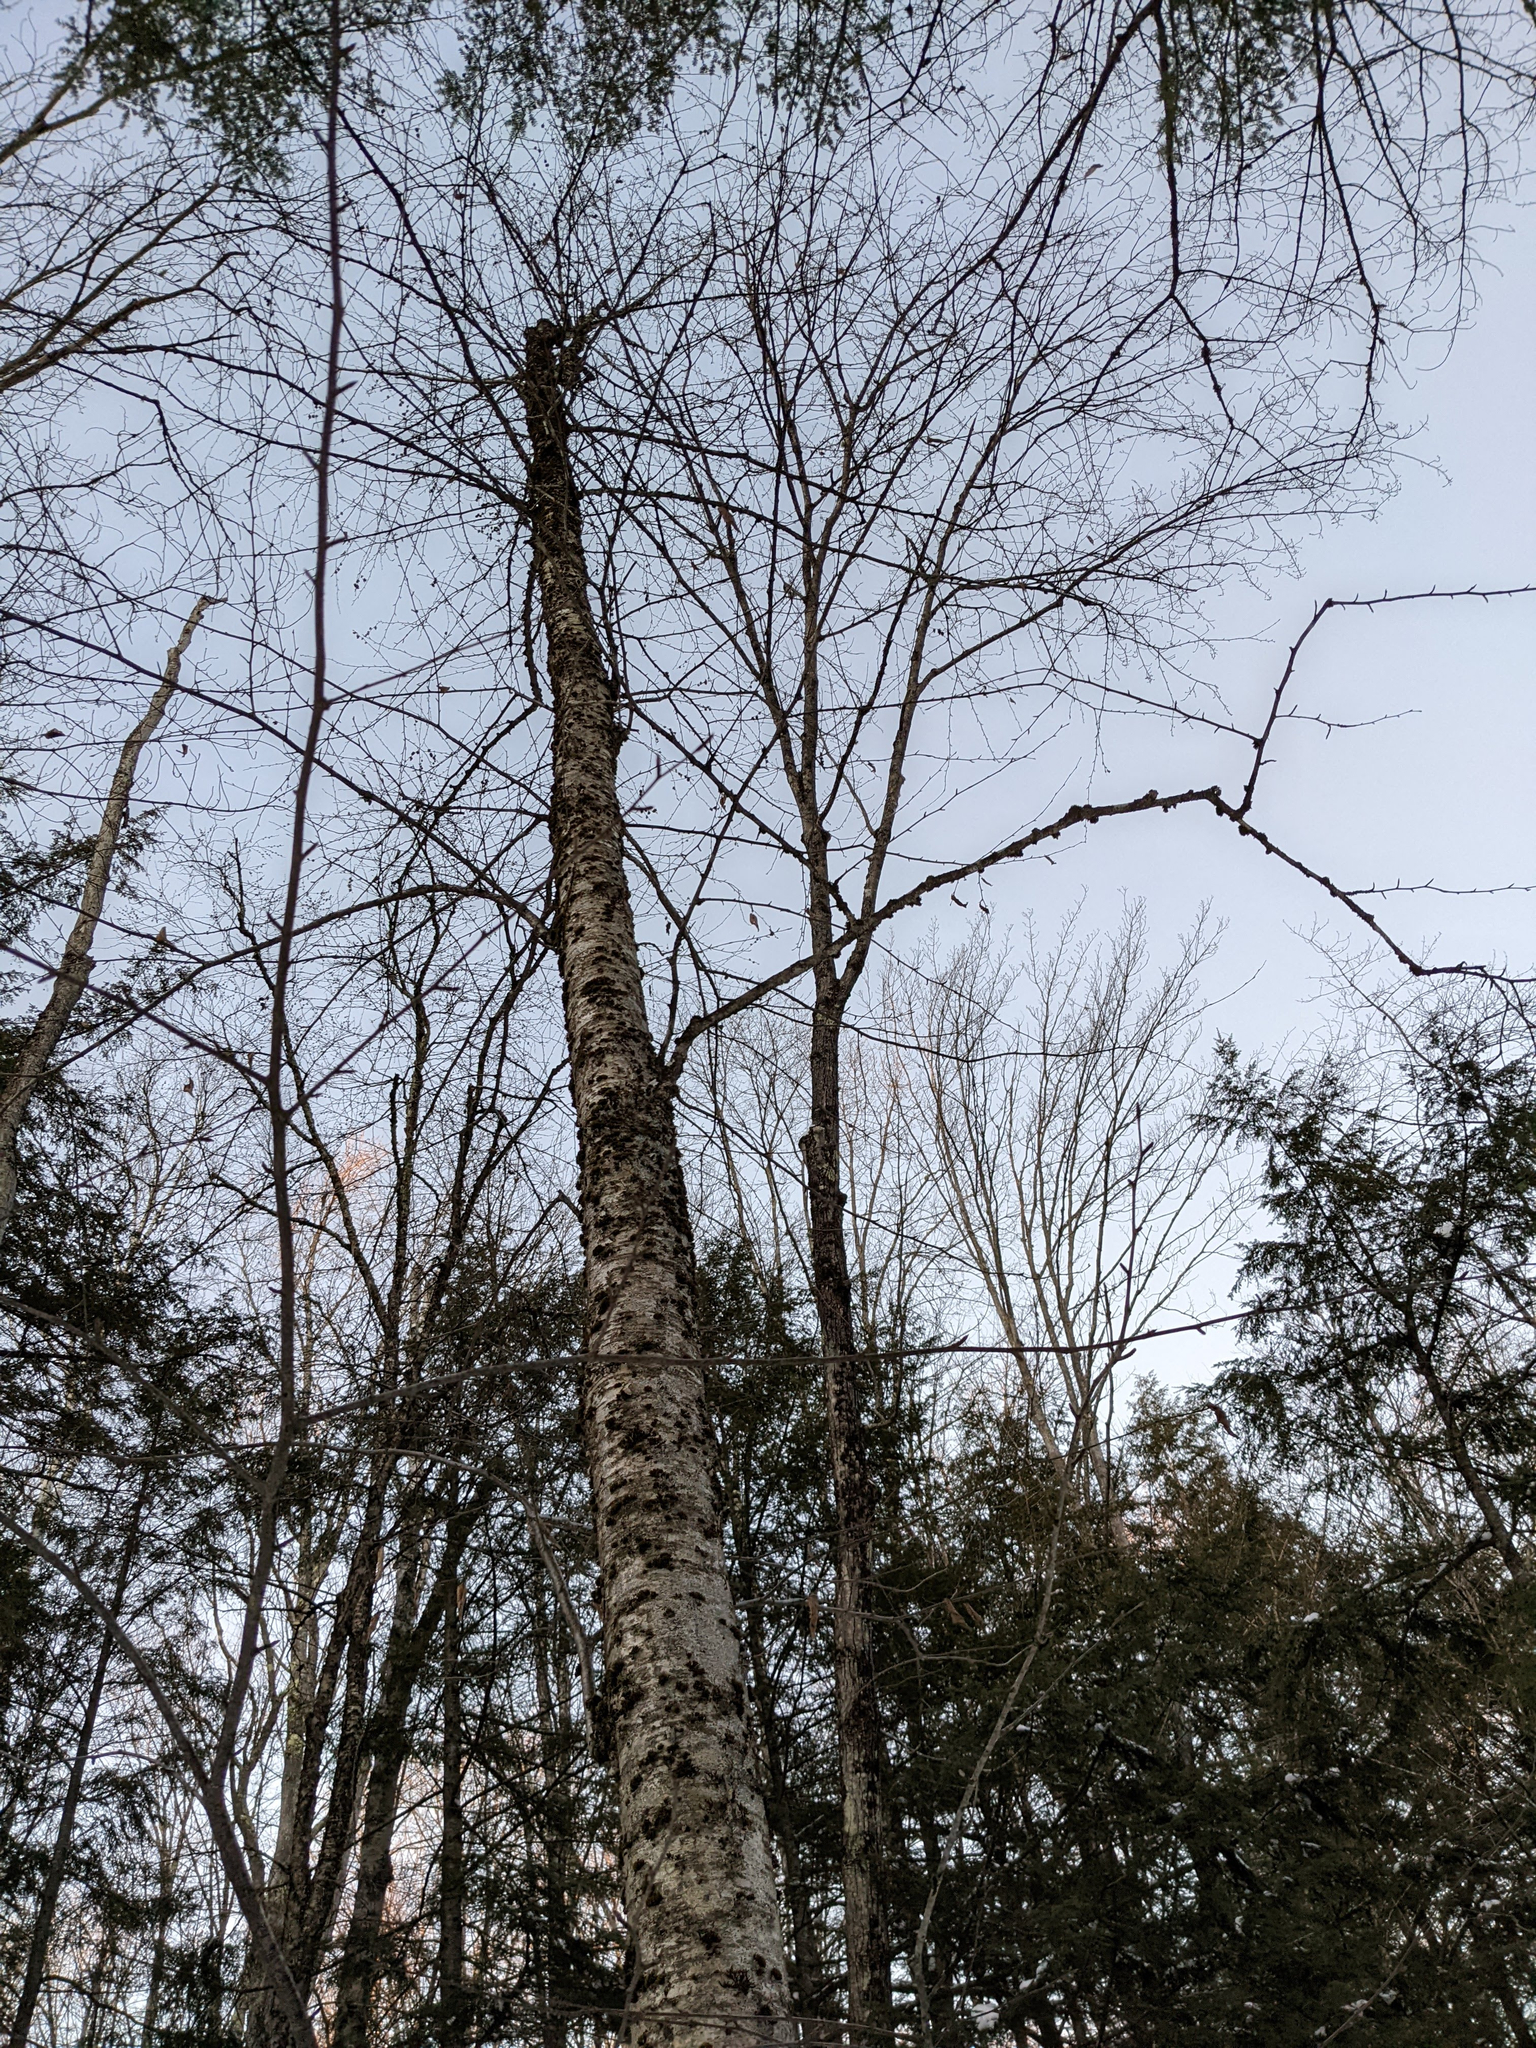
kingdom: Plantae
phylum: Tracheophyta
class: Magnoliopsida
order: Fagales
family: Betulaceae
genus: Betula
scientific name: Betula alleghaniensis
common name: Yellow birch
